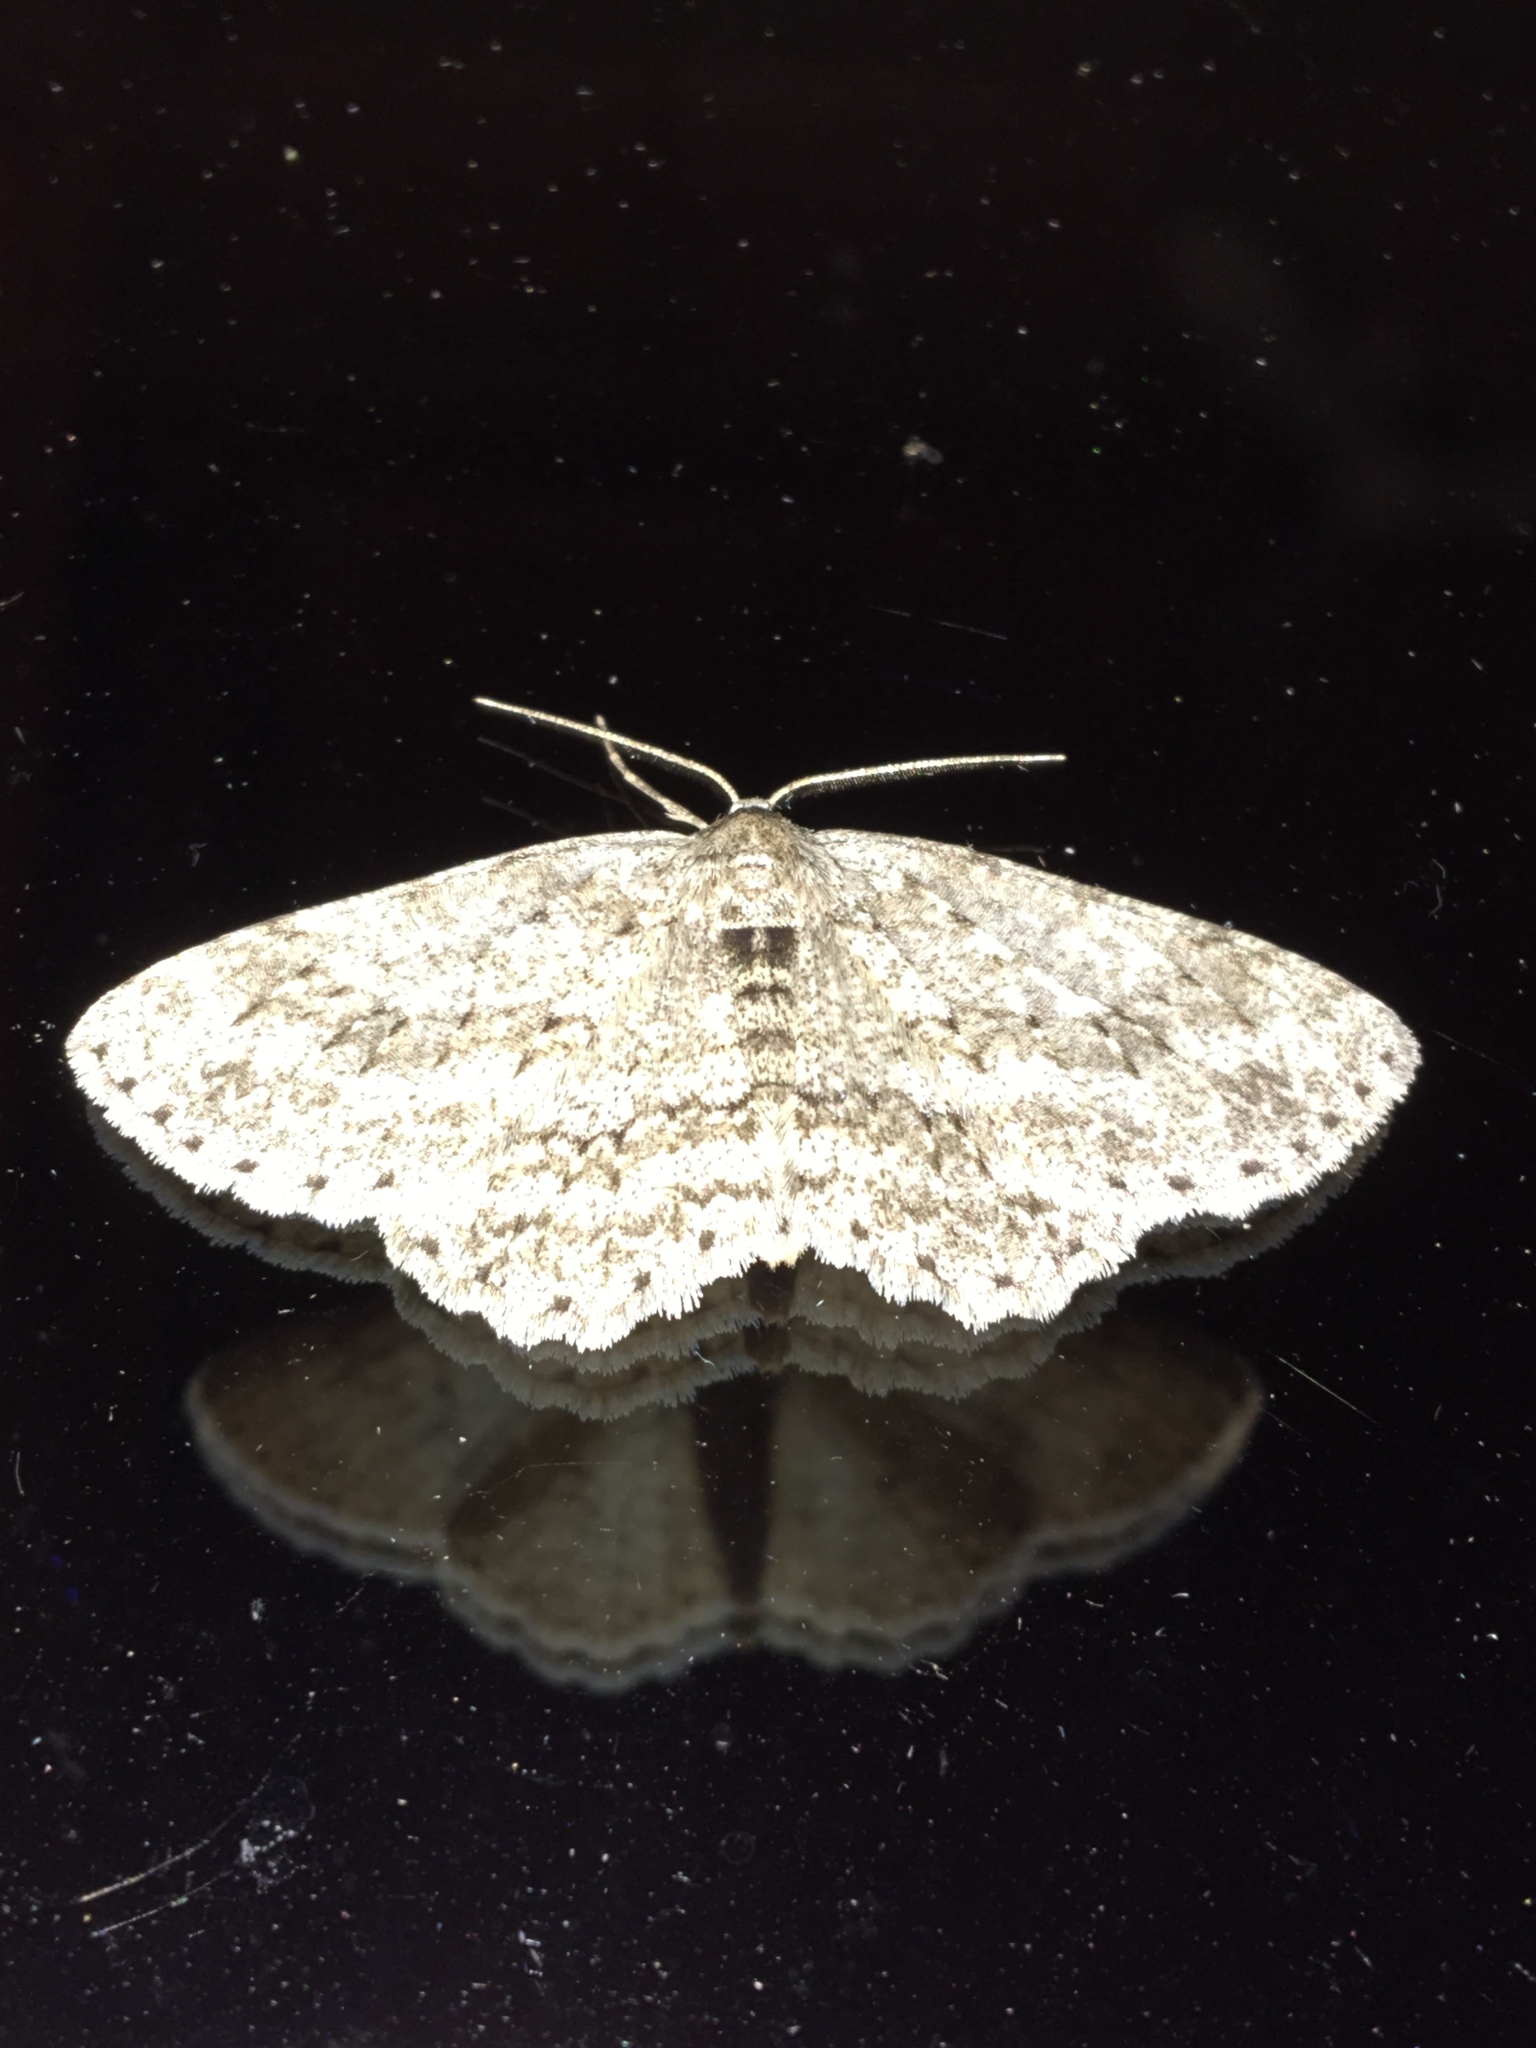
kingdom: Animalia
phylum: Arthropoda
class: Insecta
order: Lepidoptera
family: Geometridae
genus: Ectropis
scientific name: Ectropis crepuscularia
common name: Engrailed
